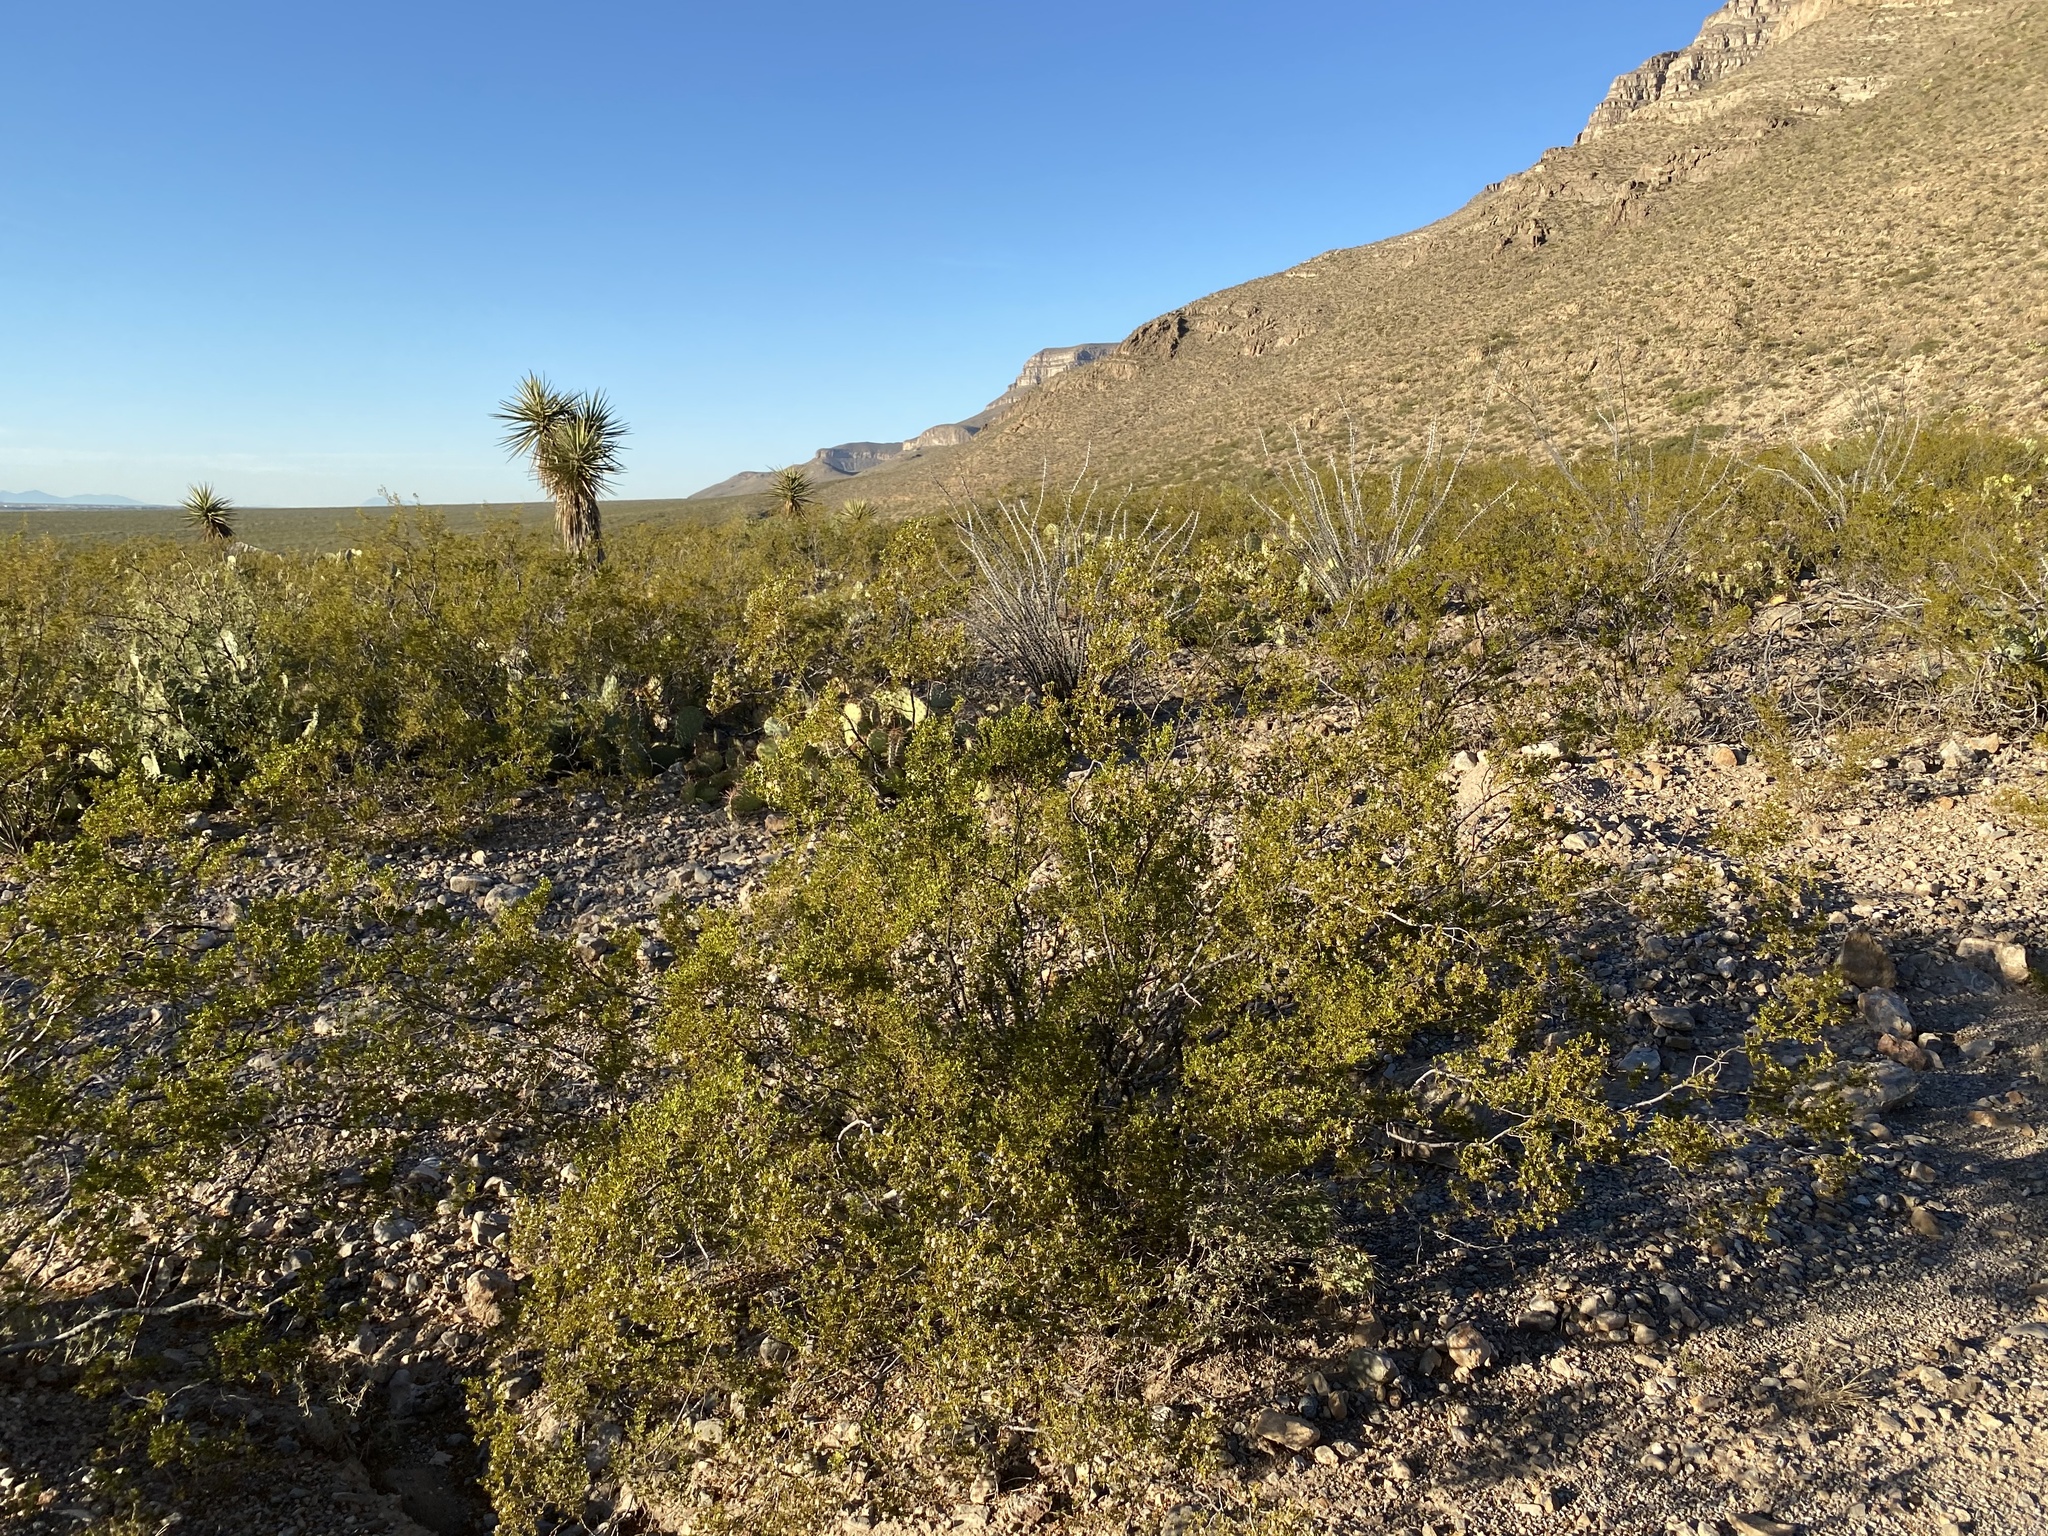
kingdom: Plantae
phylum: Tracheophyta
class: Magnoliopsida
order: Zygophyllales
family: Zygophyllaceae
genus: Larrea
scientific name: Larrea tridentata
